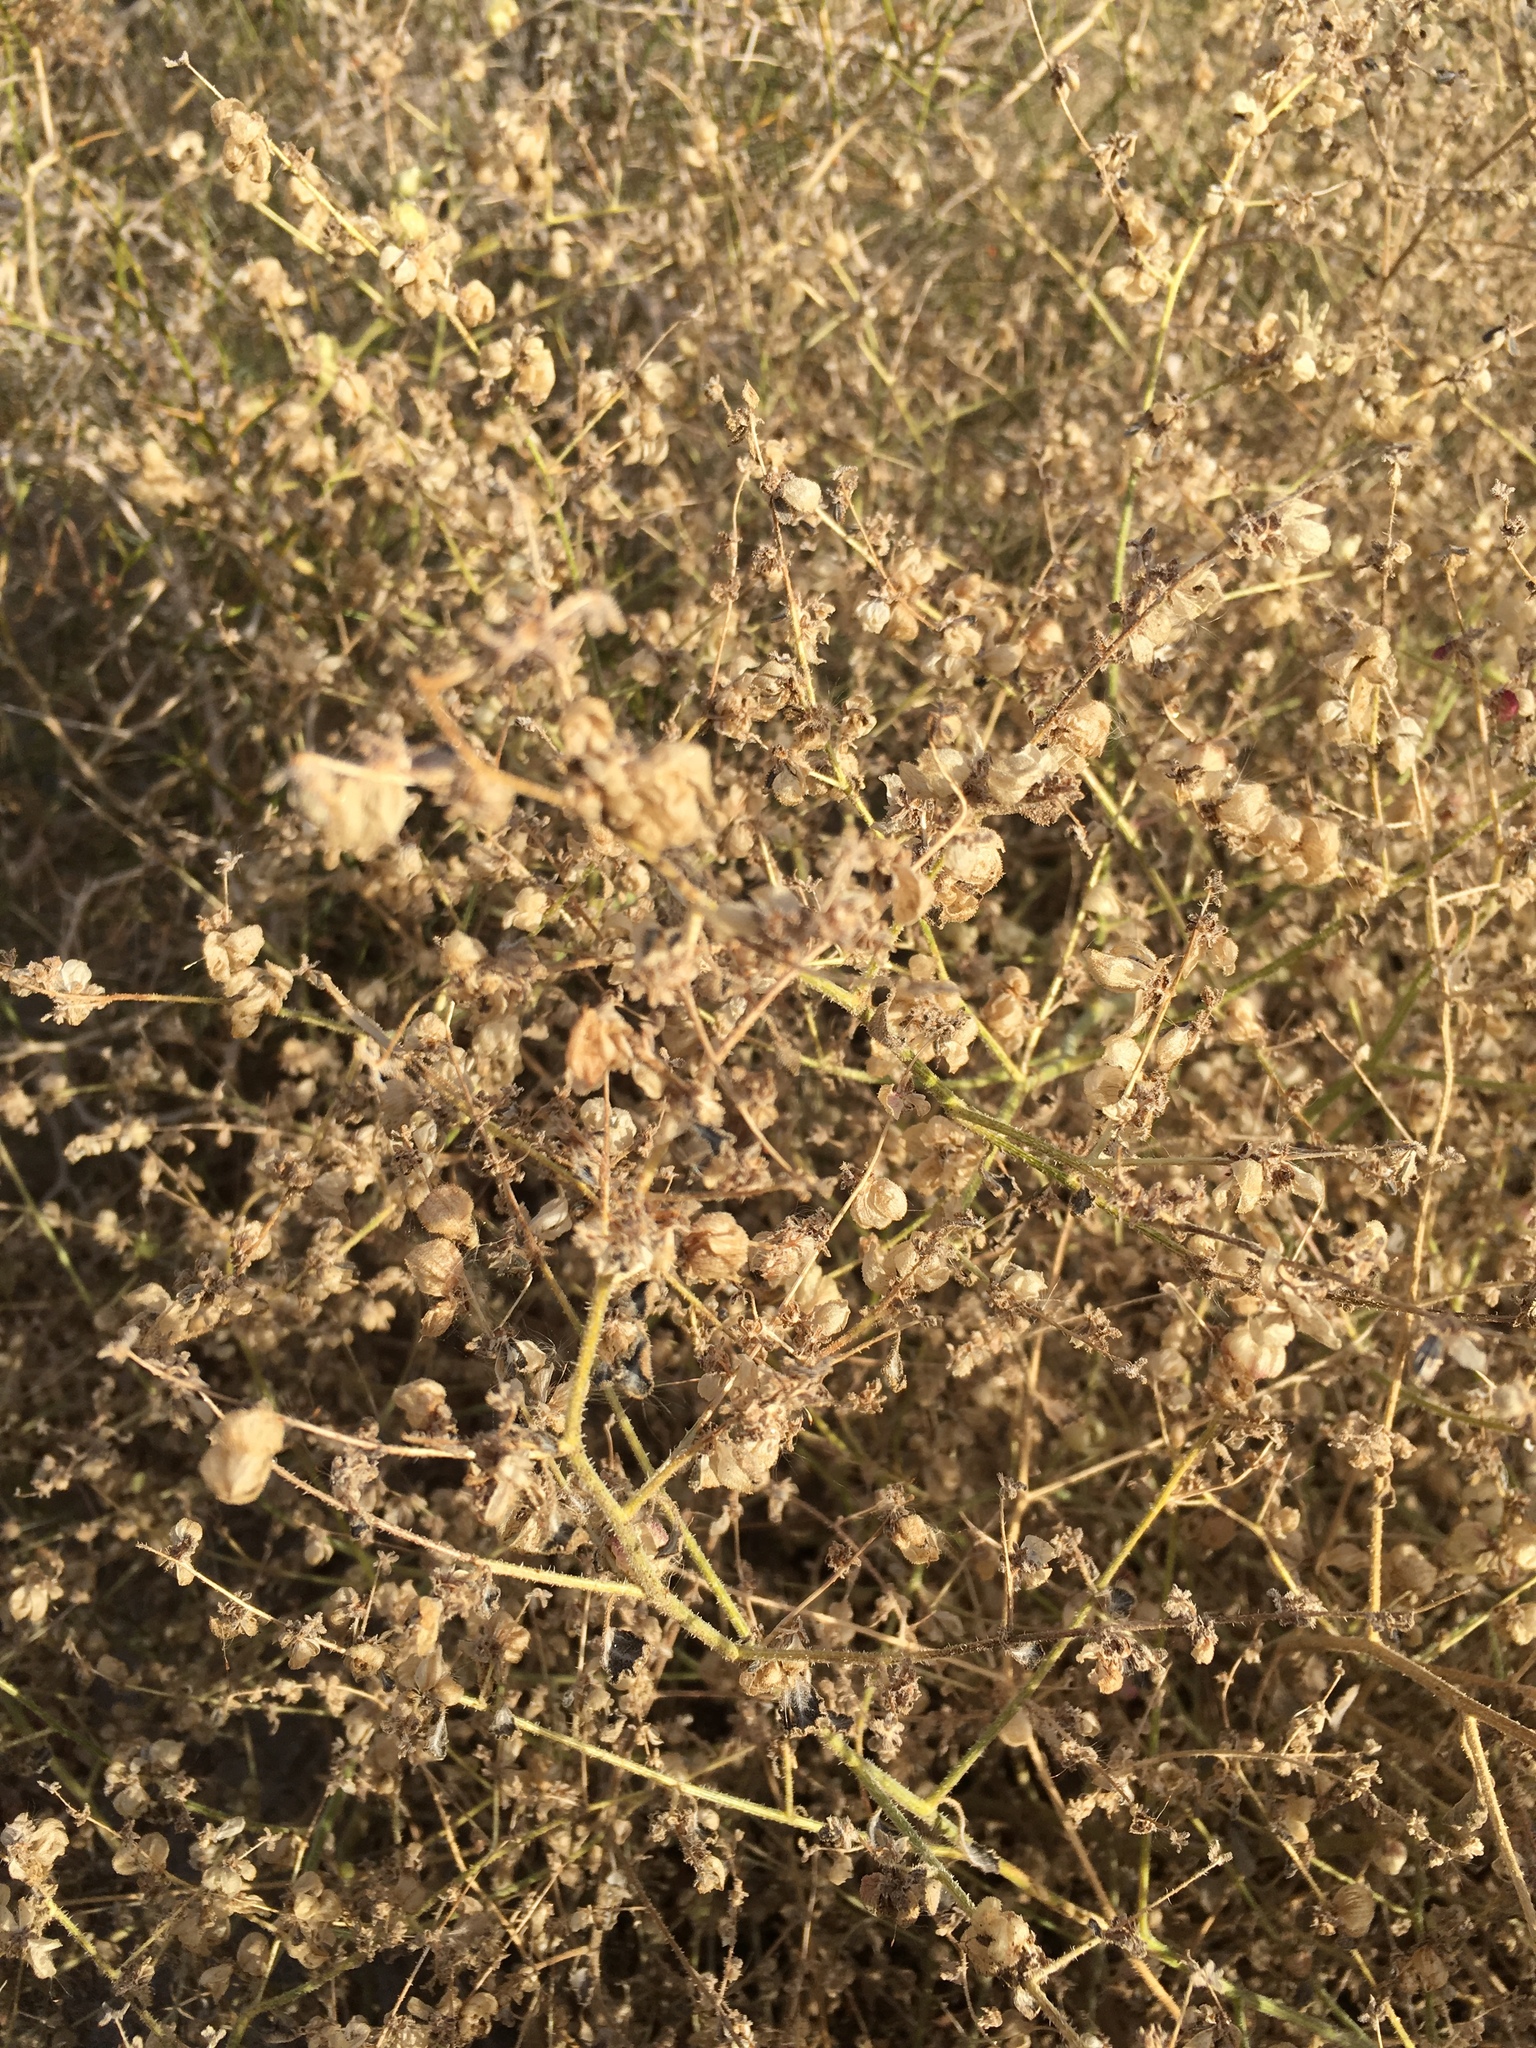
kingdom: Plantae
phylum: Tracheophyta
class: Magnoliopsida
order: Asterales
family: Asteraceae
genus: Dicoria
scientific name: Dicoria canescens
